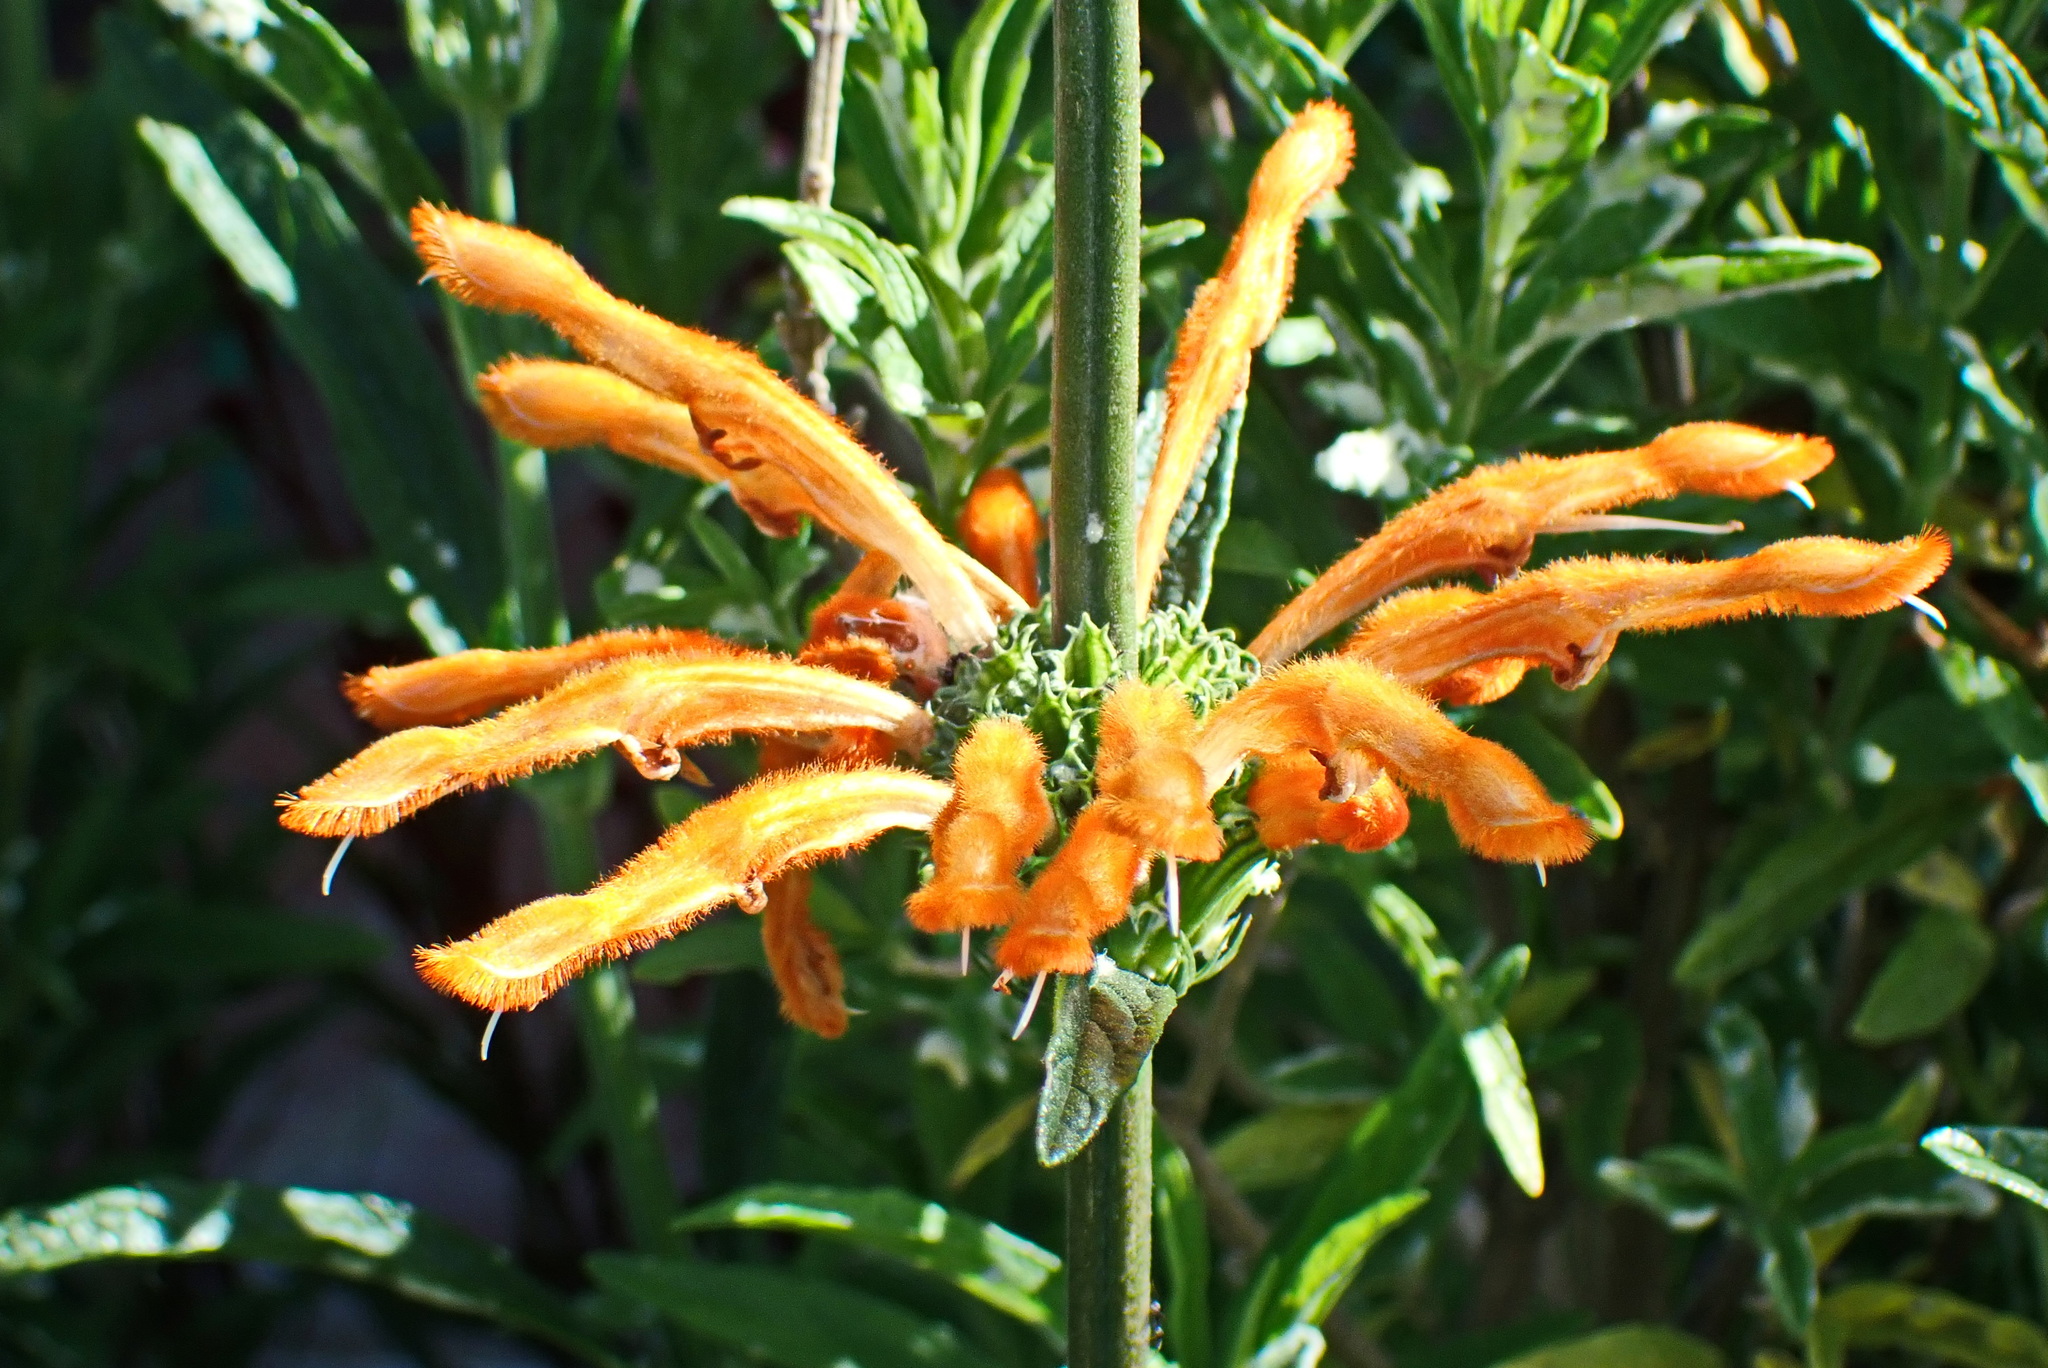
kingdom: Plantae
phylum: Tracheophyta
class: Magnoliopsida
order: Lamiales
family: Lamiaceae
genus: Leonotis
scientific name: Leonotis leonurus
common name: Lion's ear
